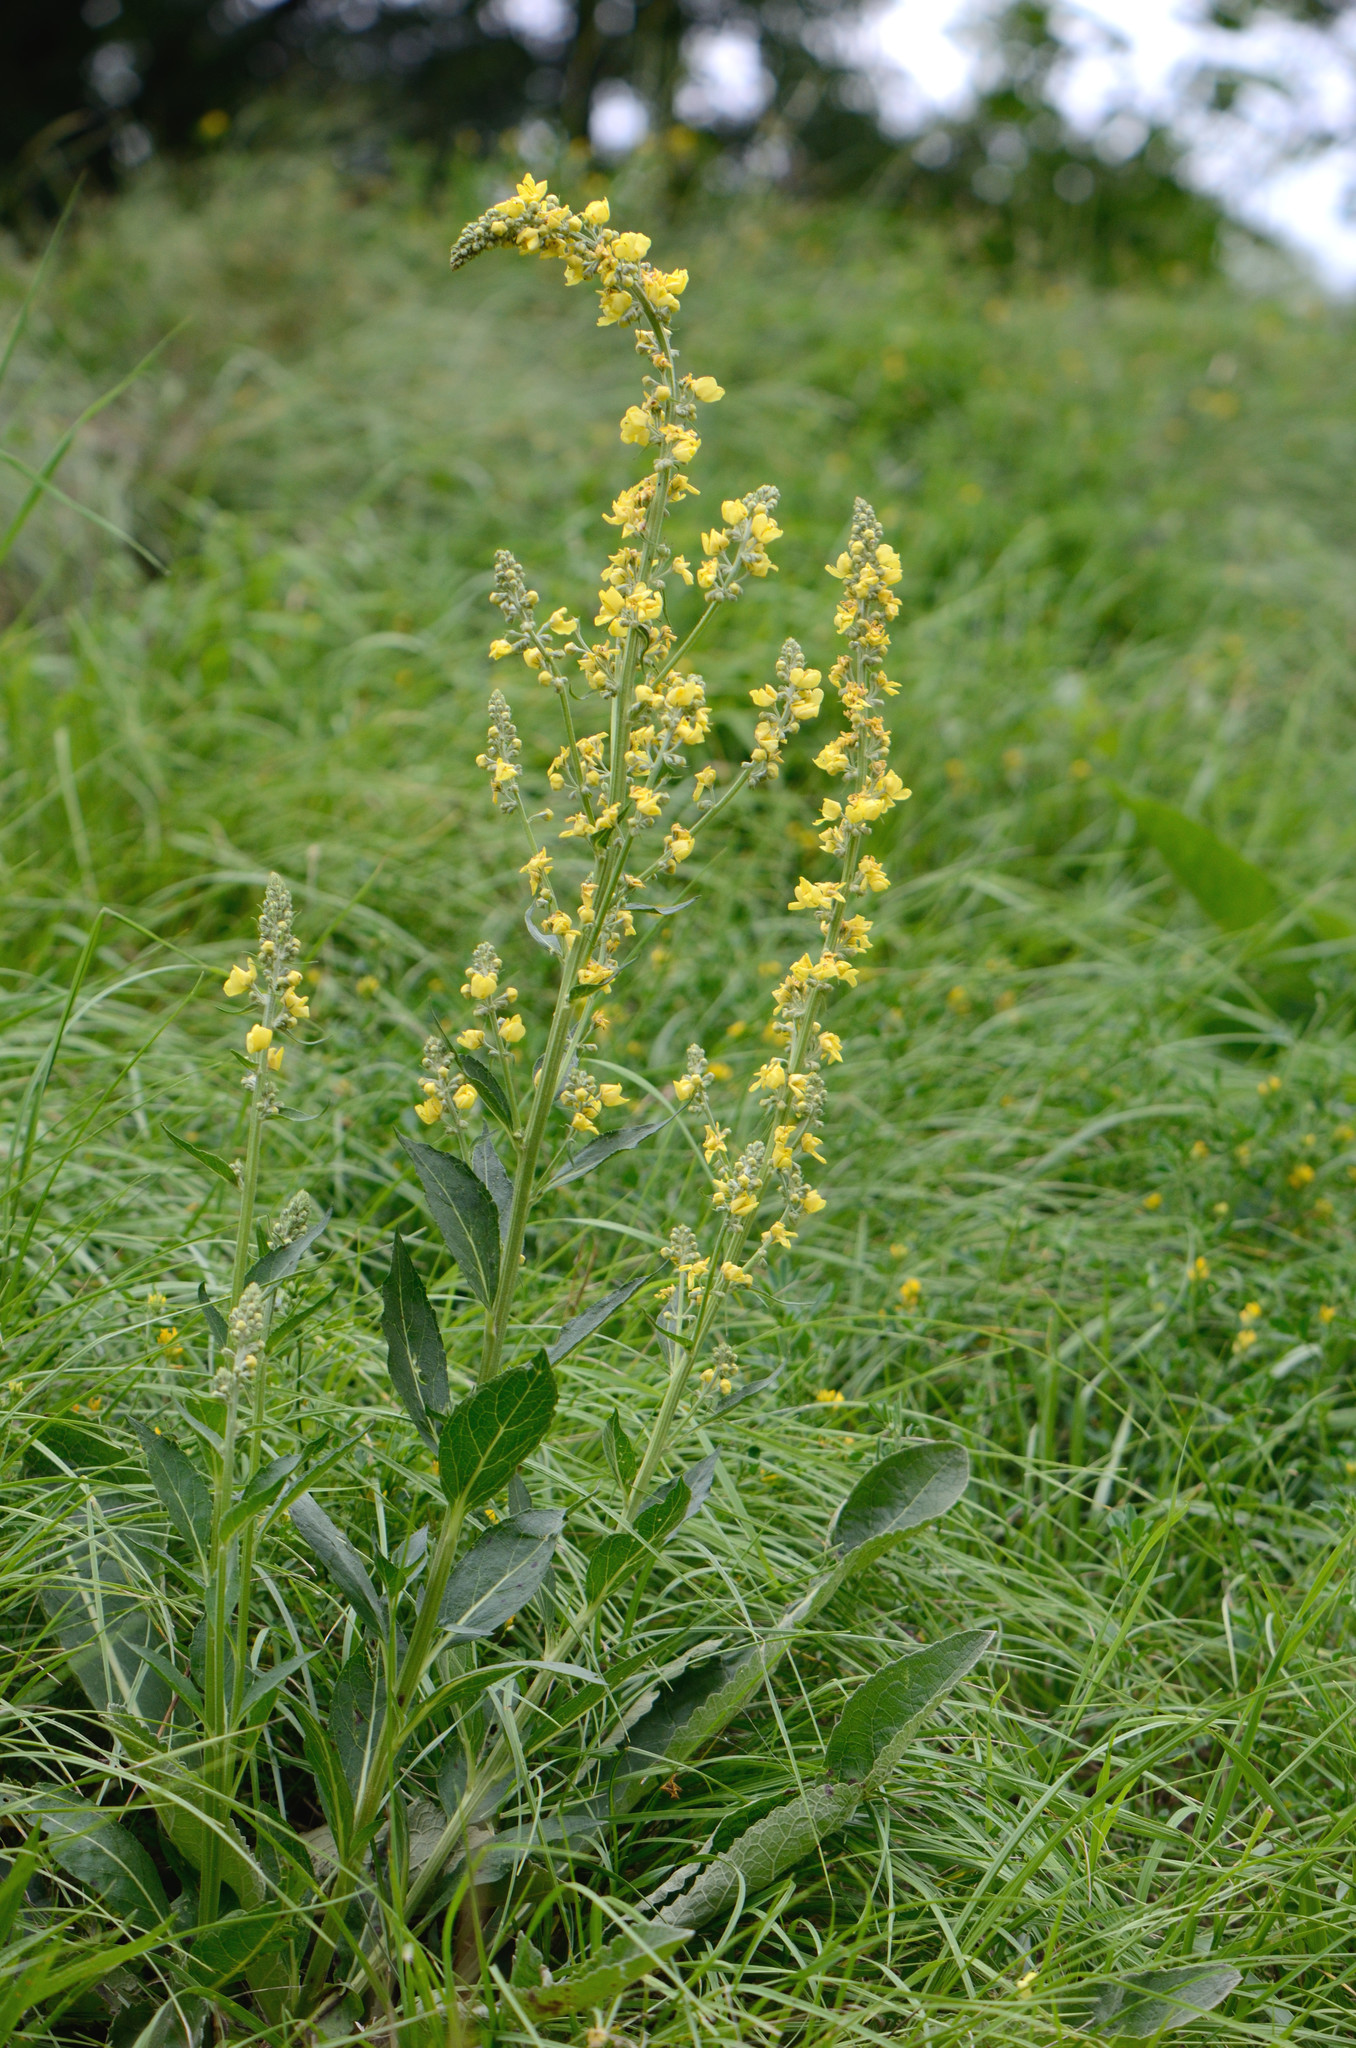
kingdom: Plantae
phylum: Tracheophyta
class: Magnoliopsida
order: Lamiales
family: Scrophulariaceae
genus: Verbascum
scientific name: Verbascum lychnitis
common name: White mullein
